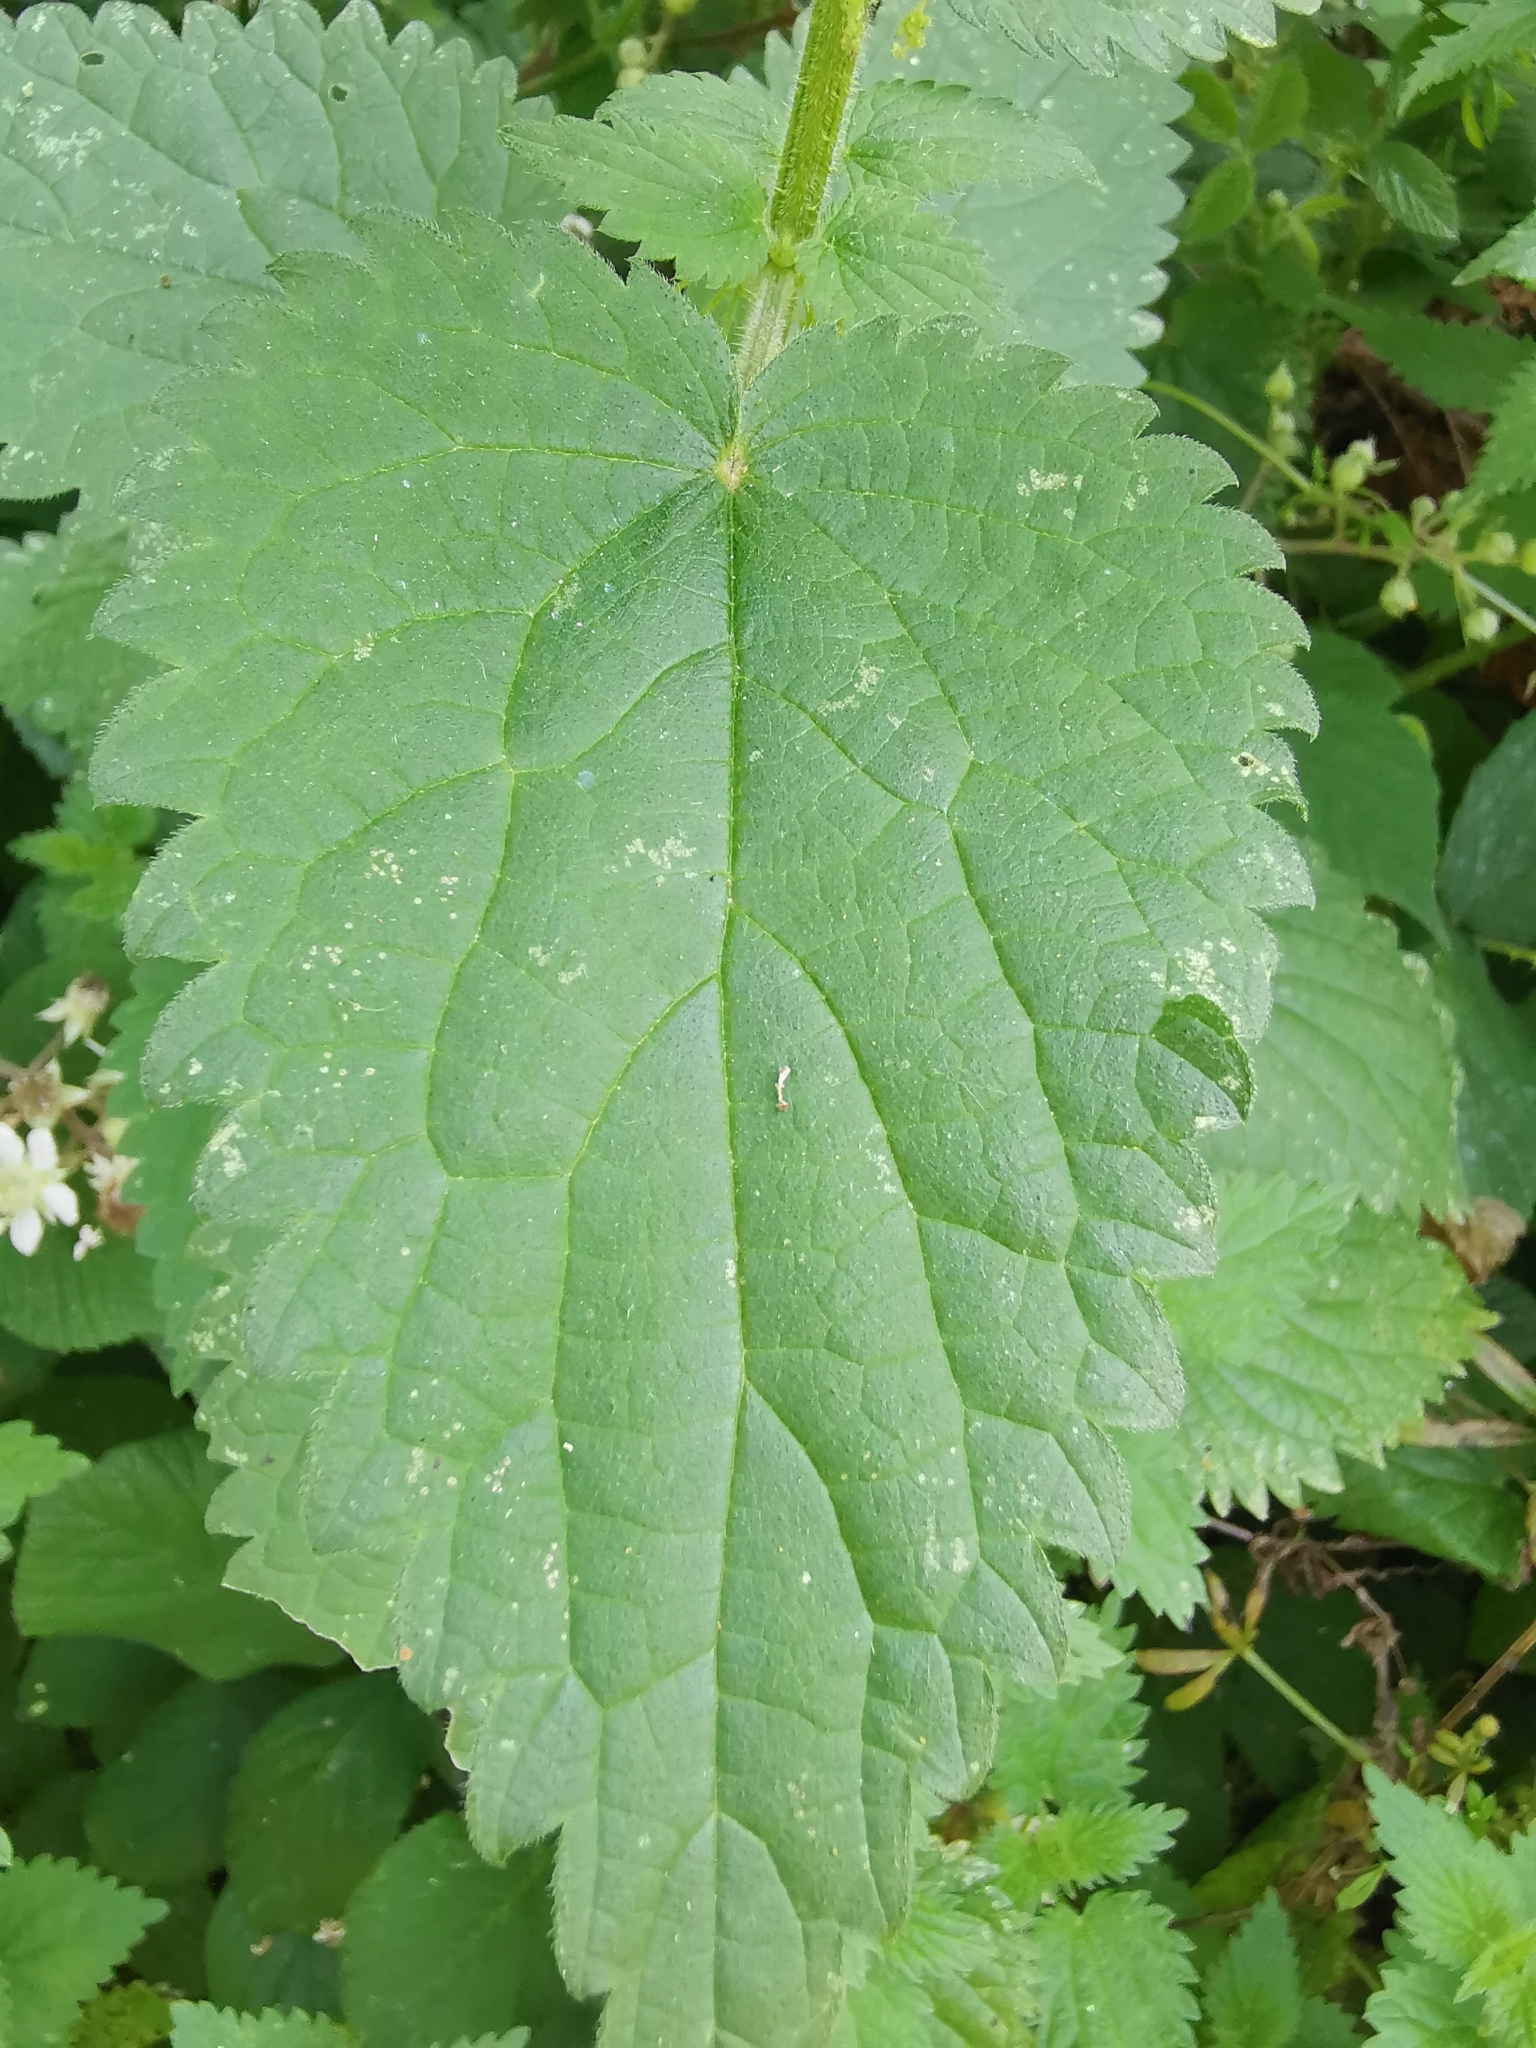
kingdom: Plantae
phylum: Tracheophyta
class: Magnoliopsida
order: Rosales
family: Urticaceae
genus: Urtica
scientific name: Urtica dioica
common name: Common nettle
